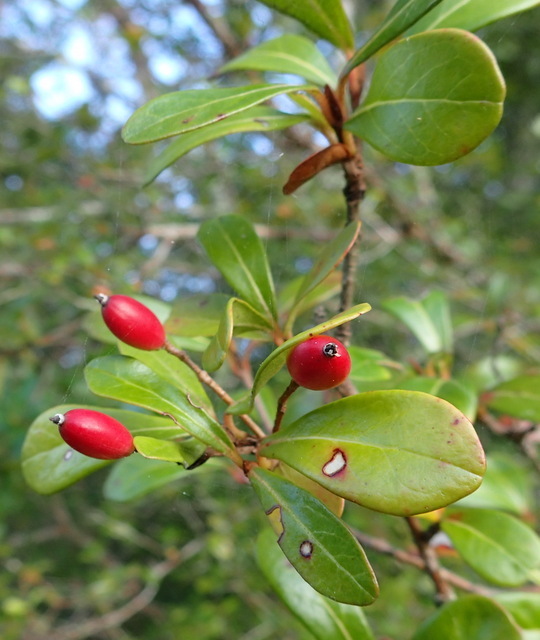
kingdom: Plantae
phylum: Tracheophyta
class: Magnoliopsida
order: Dipsacales
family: Viburnaceae
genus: Viburnum
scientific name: Viburnum obovatum
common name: Walter's viburnum
